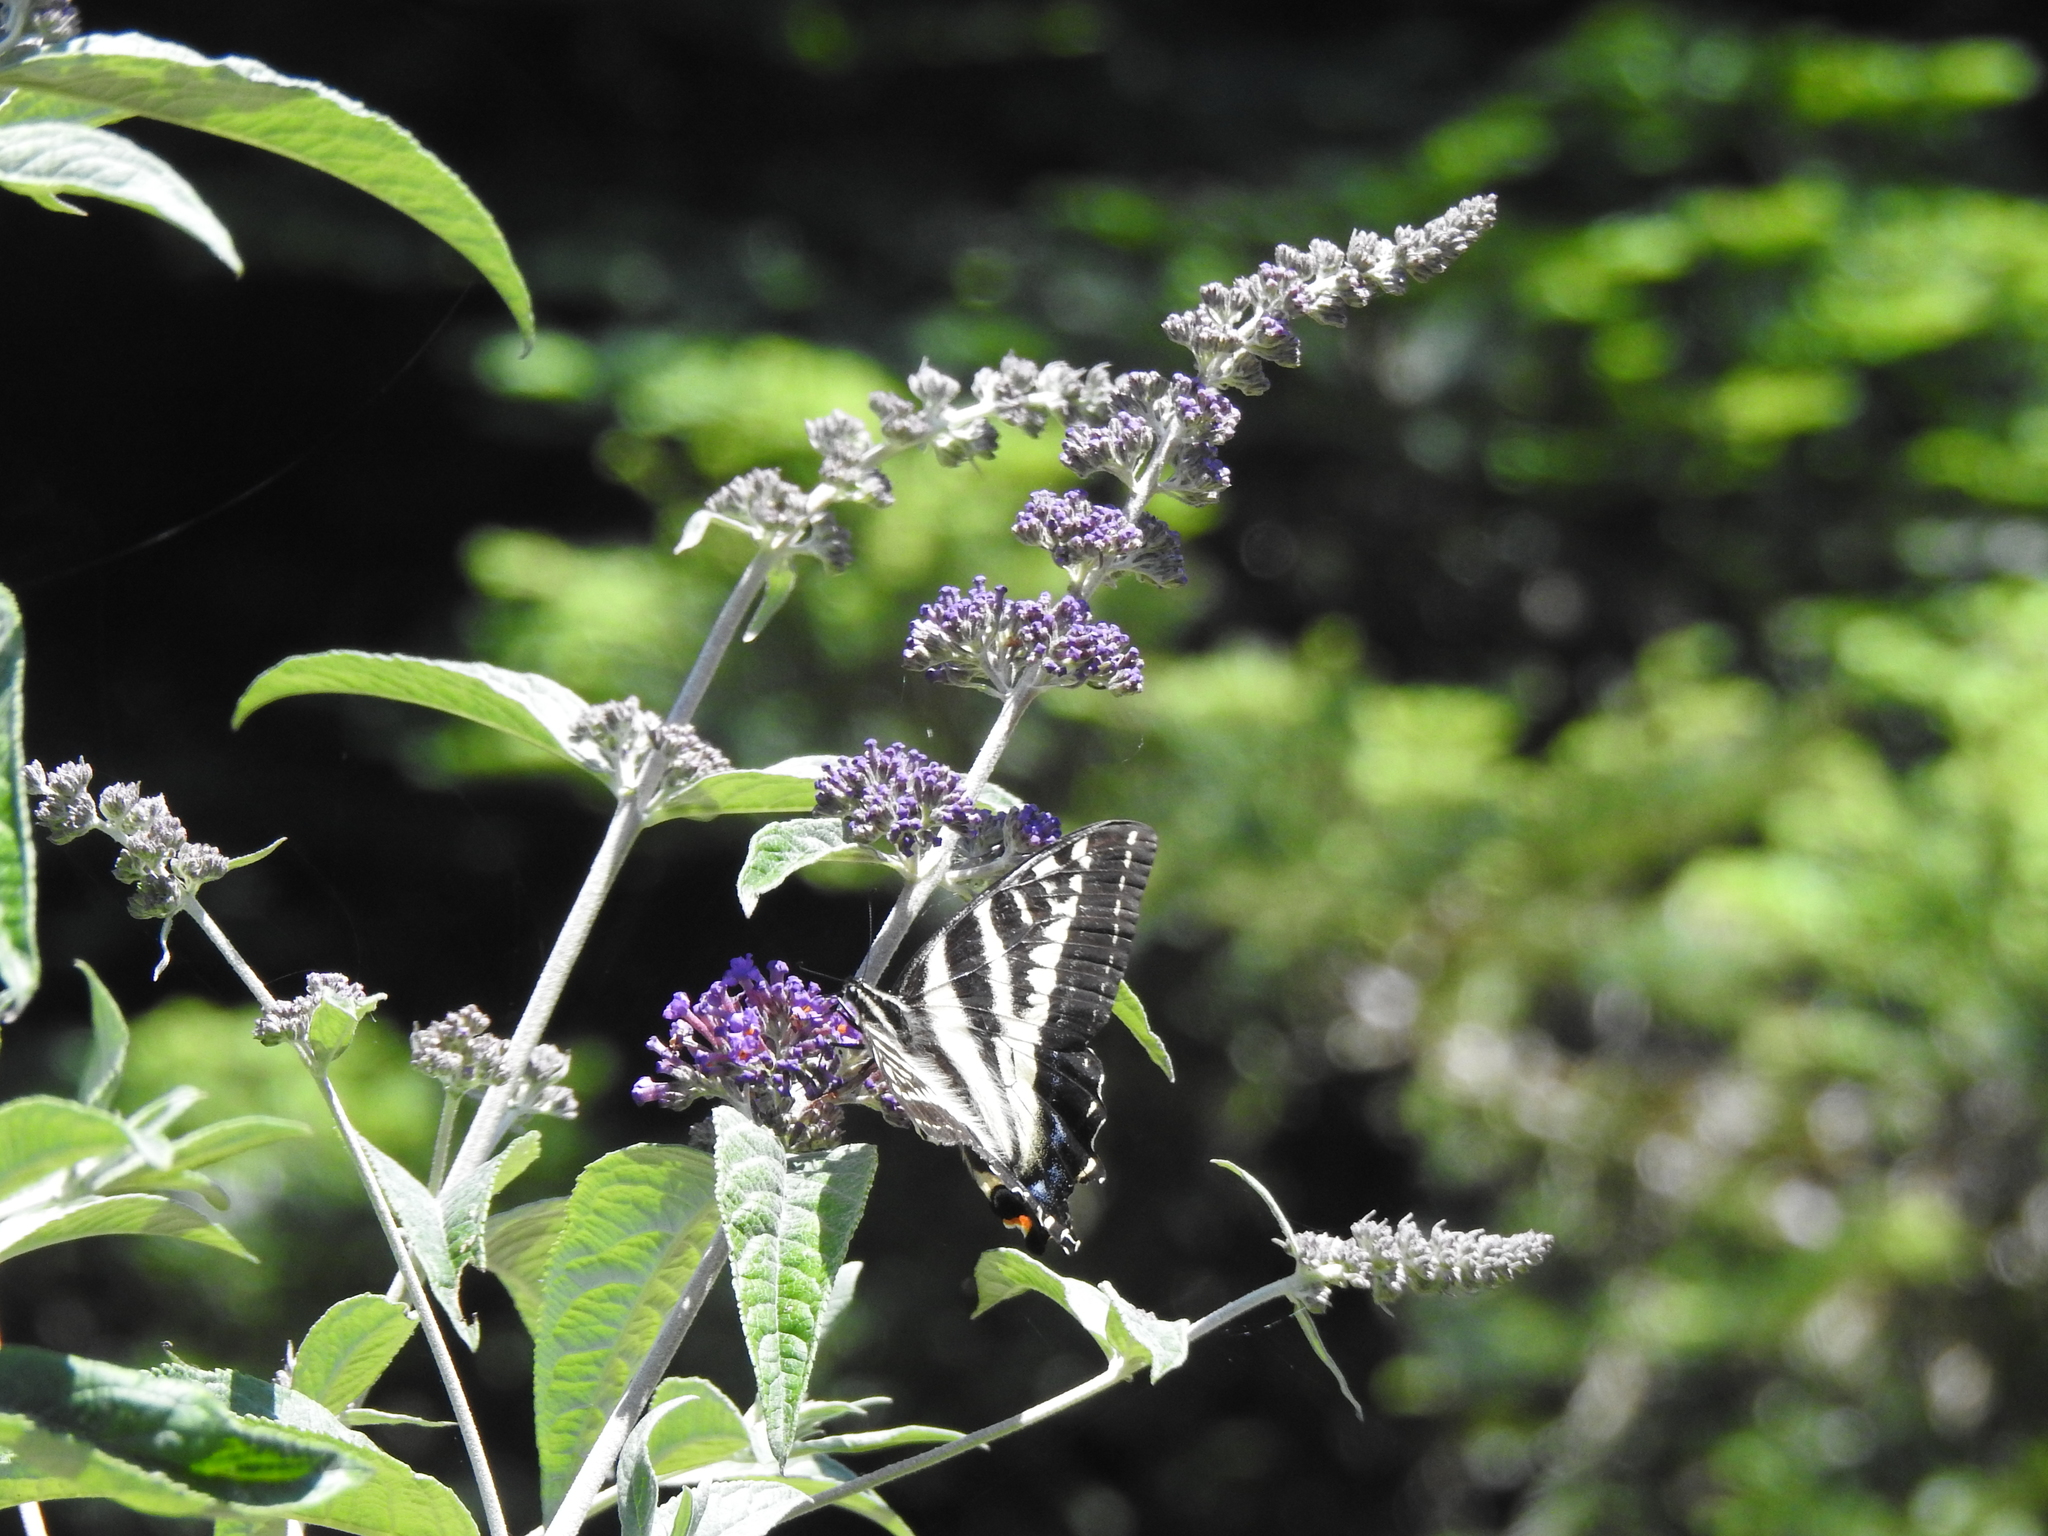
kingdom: Animalia
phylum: Arthropoda
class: Insecta
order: Lepidoptera
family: Papilionidae
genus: Papilio
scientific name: Papilio eurymedon
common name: Pale tiger swallowtail
